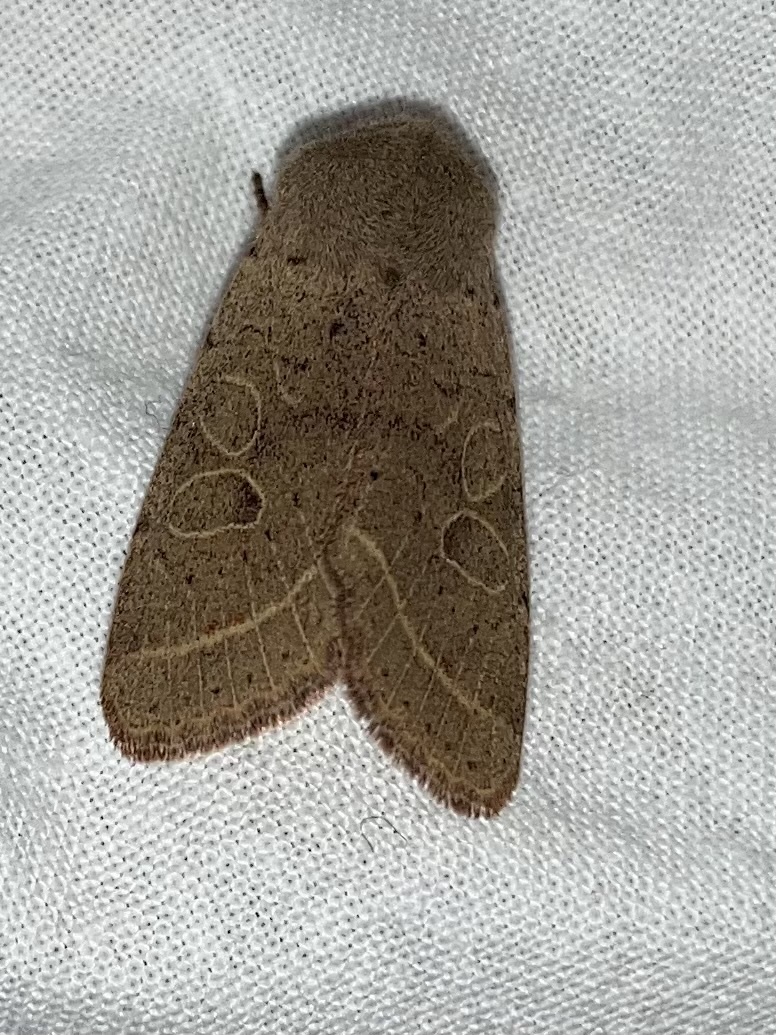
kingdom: Animalia
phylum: Arthropoda
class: Insecta
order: Lepidoptera
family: Noctuidae
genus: Orthosia
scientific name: Orthosia cerasi
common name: Common quaker
